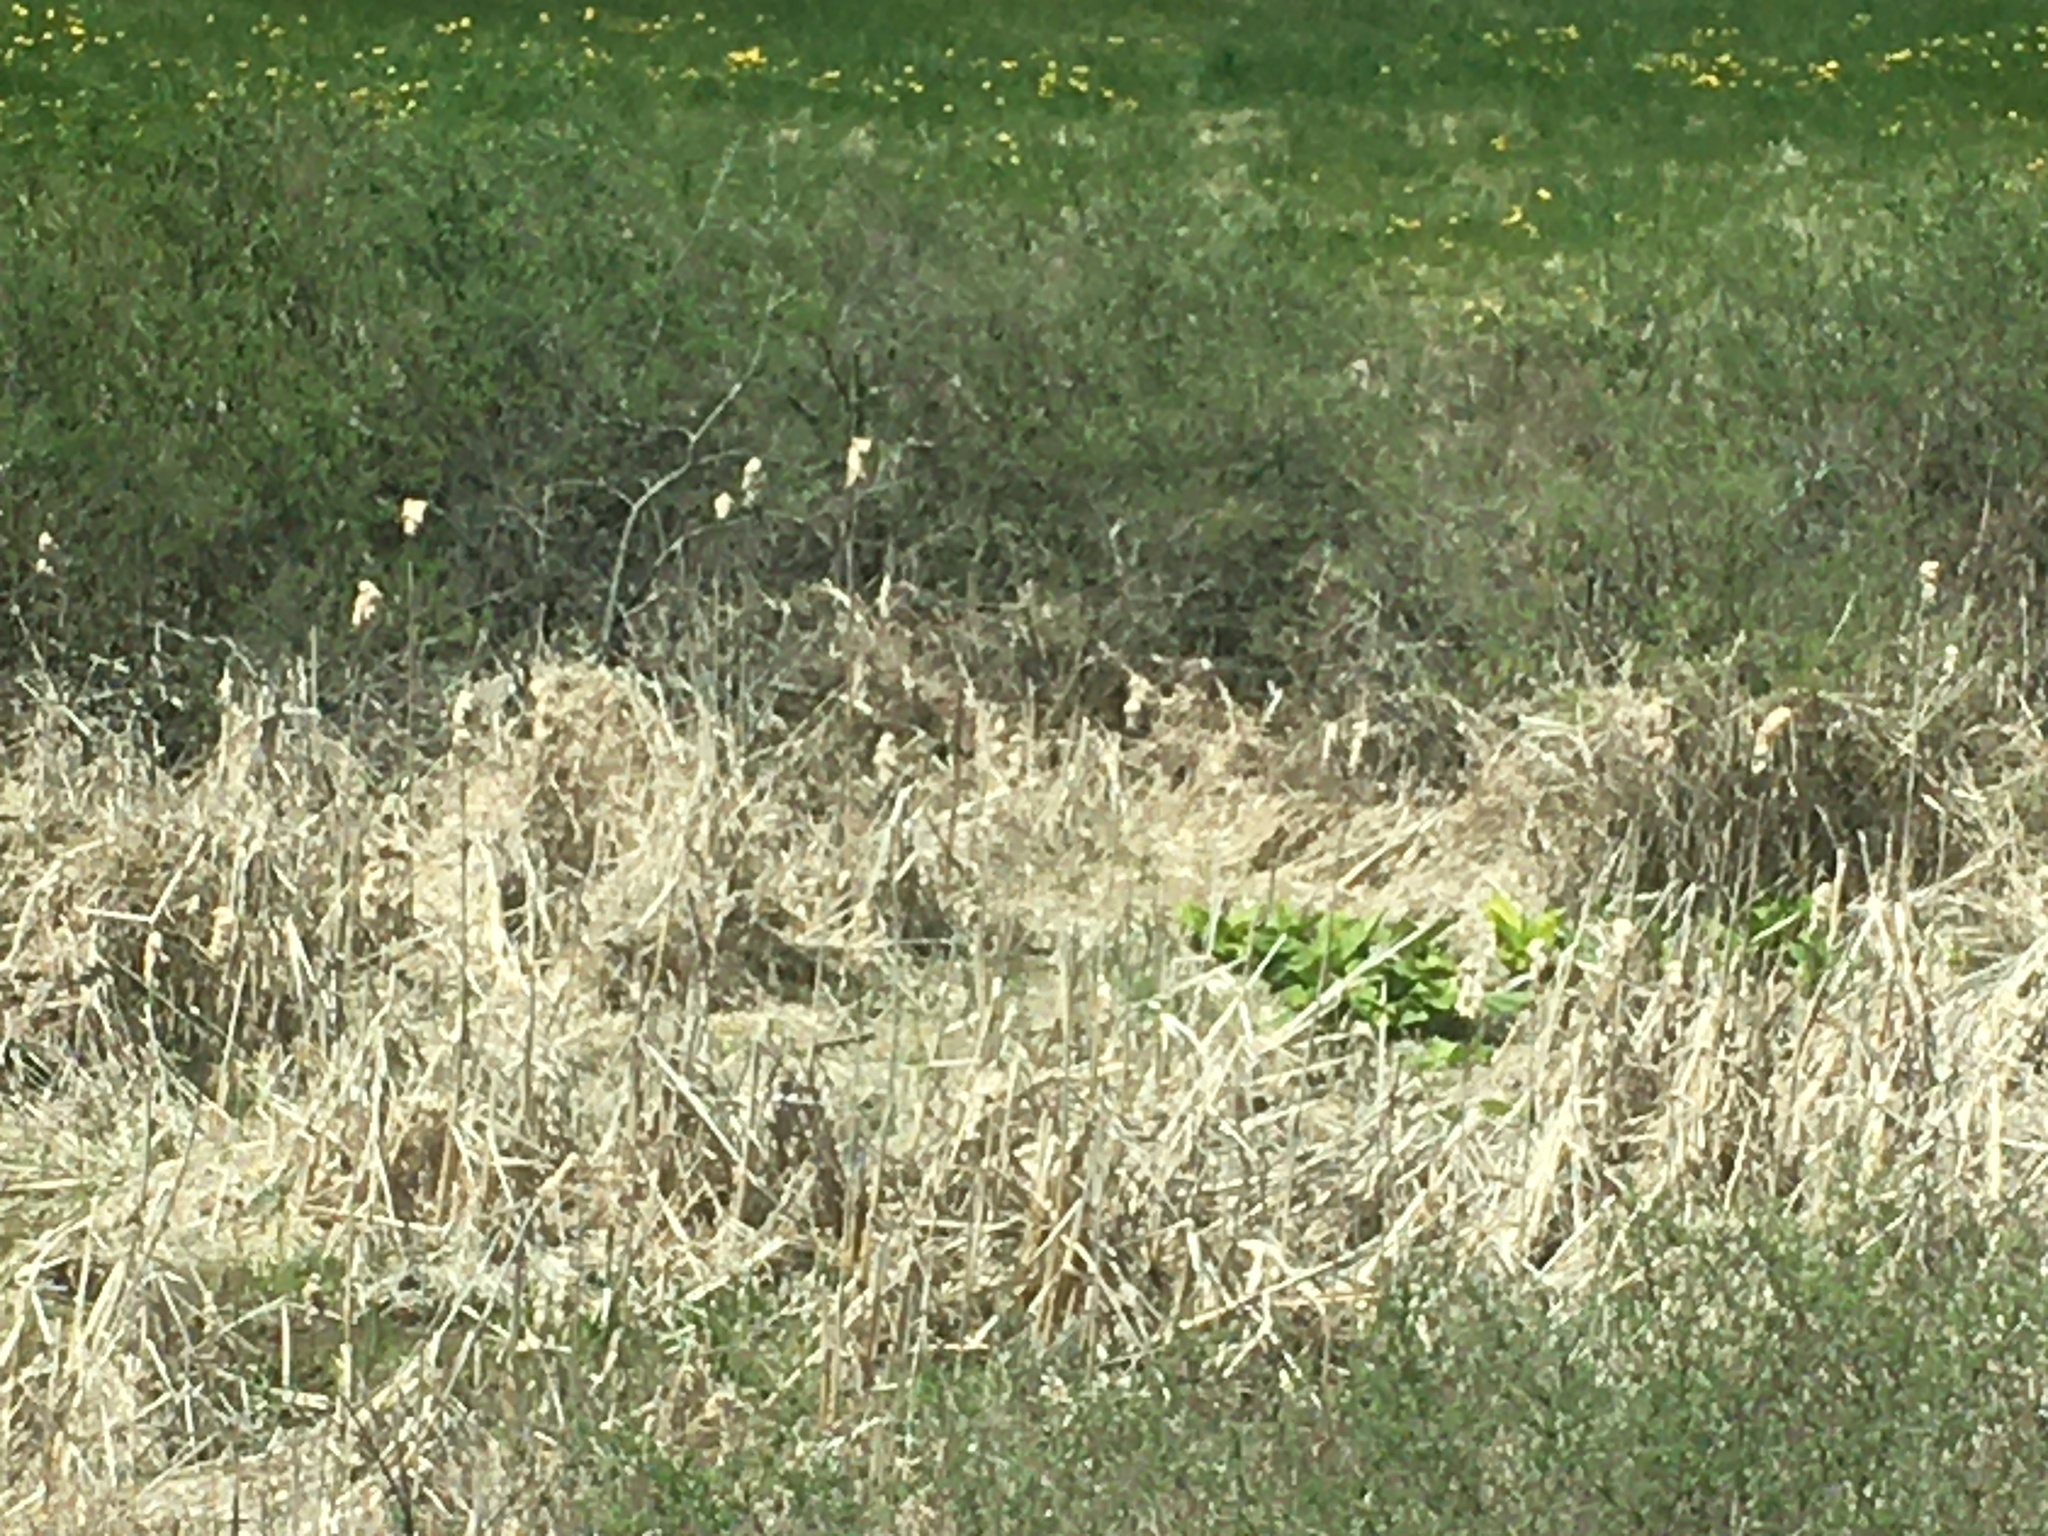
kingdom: Plantae
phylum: Tracheophyta
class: Liliopsida
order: Alismatales
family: Araceae
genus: Symplocarpus
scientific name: Symplocarpus foetidus
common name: Eastern skunk cabbage
